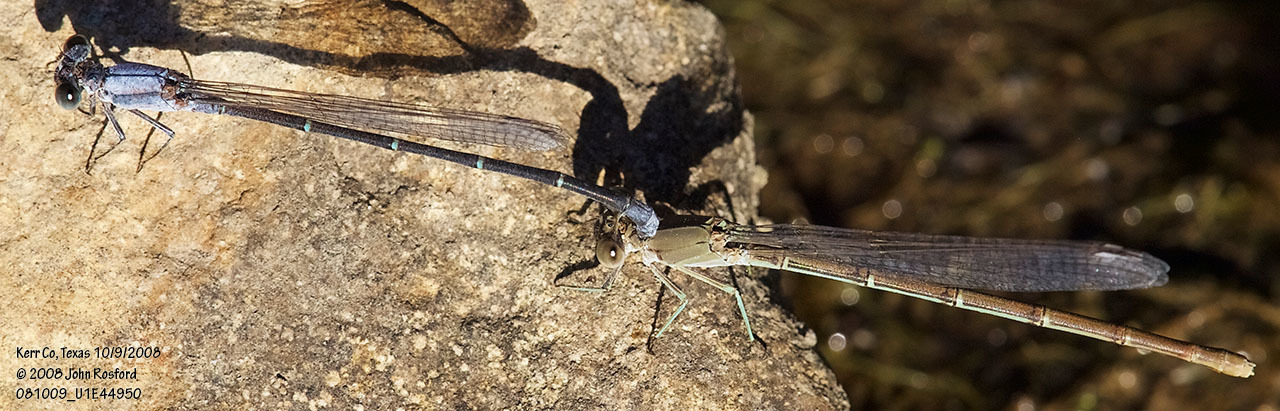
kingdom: Animalia
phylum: Arthropoda
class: Insecta
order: Odonata
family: Coenagrionidae
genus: Argia
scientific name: Argia moesta
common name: Powdered dancer
